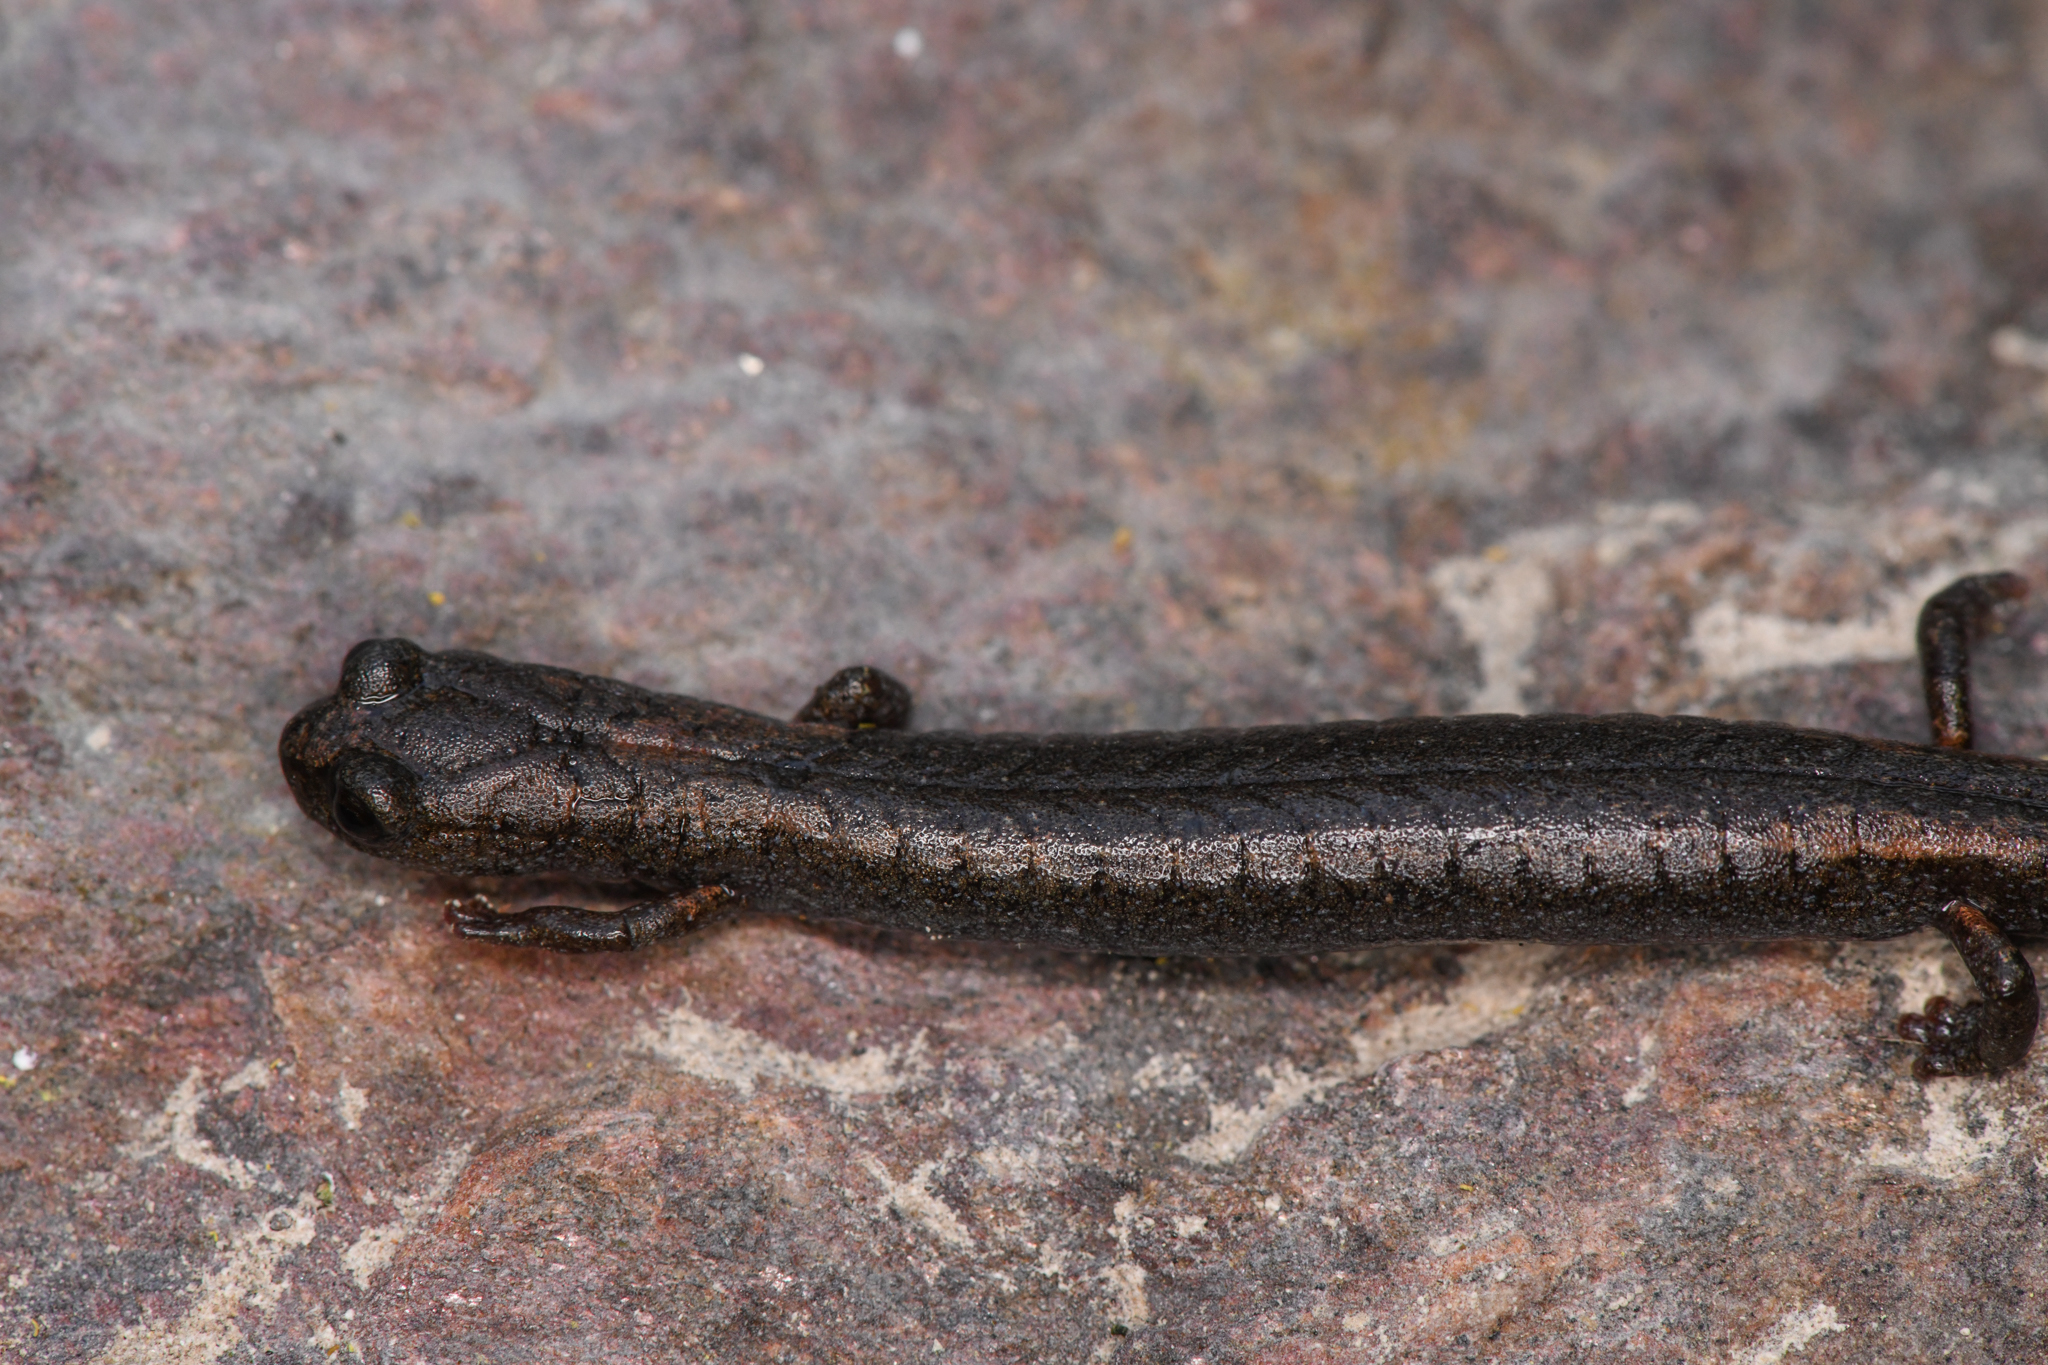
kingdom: Animalia
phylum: Chordata
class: Amphibia
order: Caudata
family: Plethodontidae
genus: Batrachoseps
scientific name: Batrachoseps regius
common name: Kings river slender salamander
